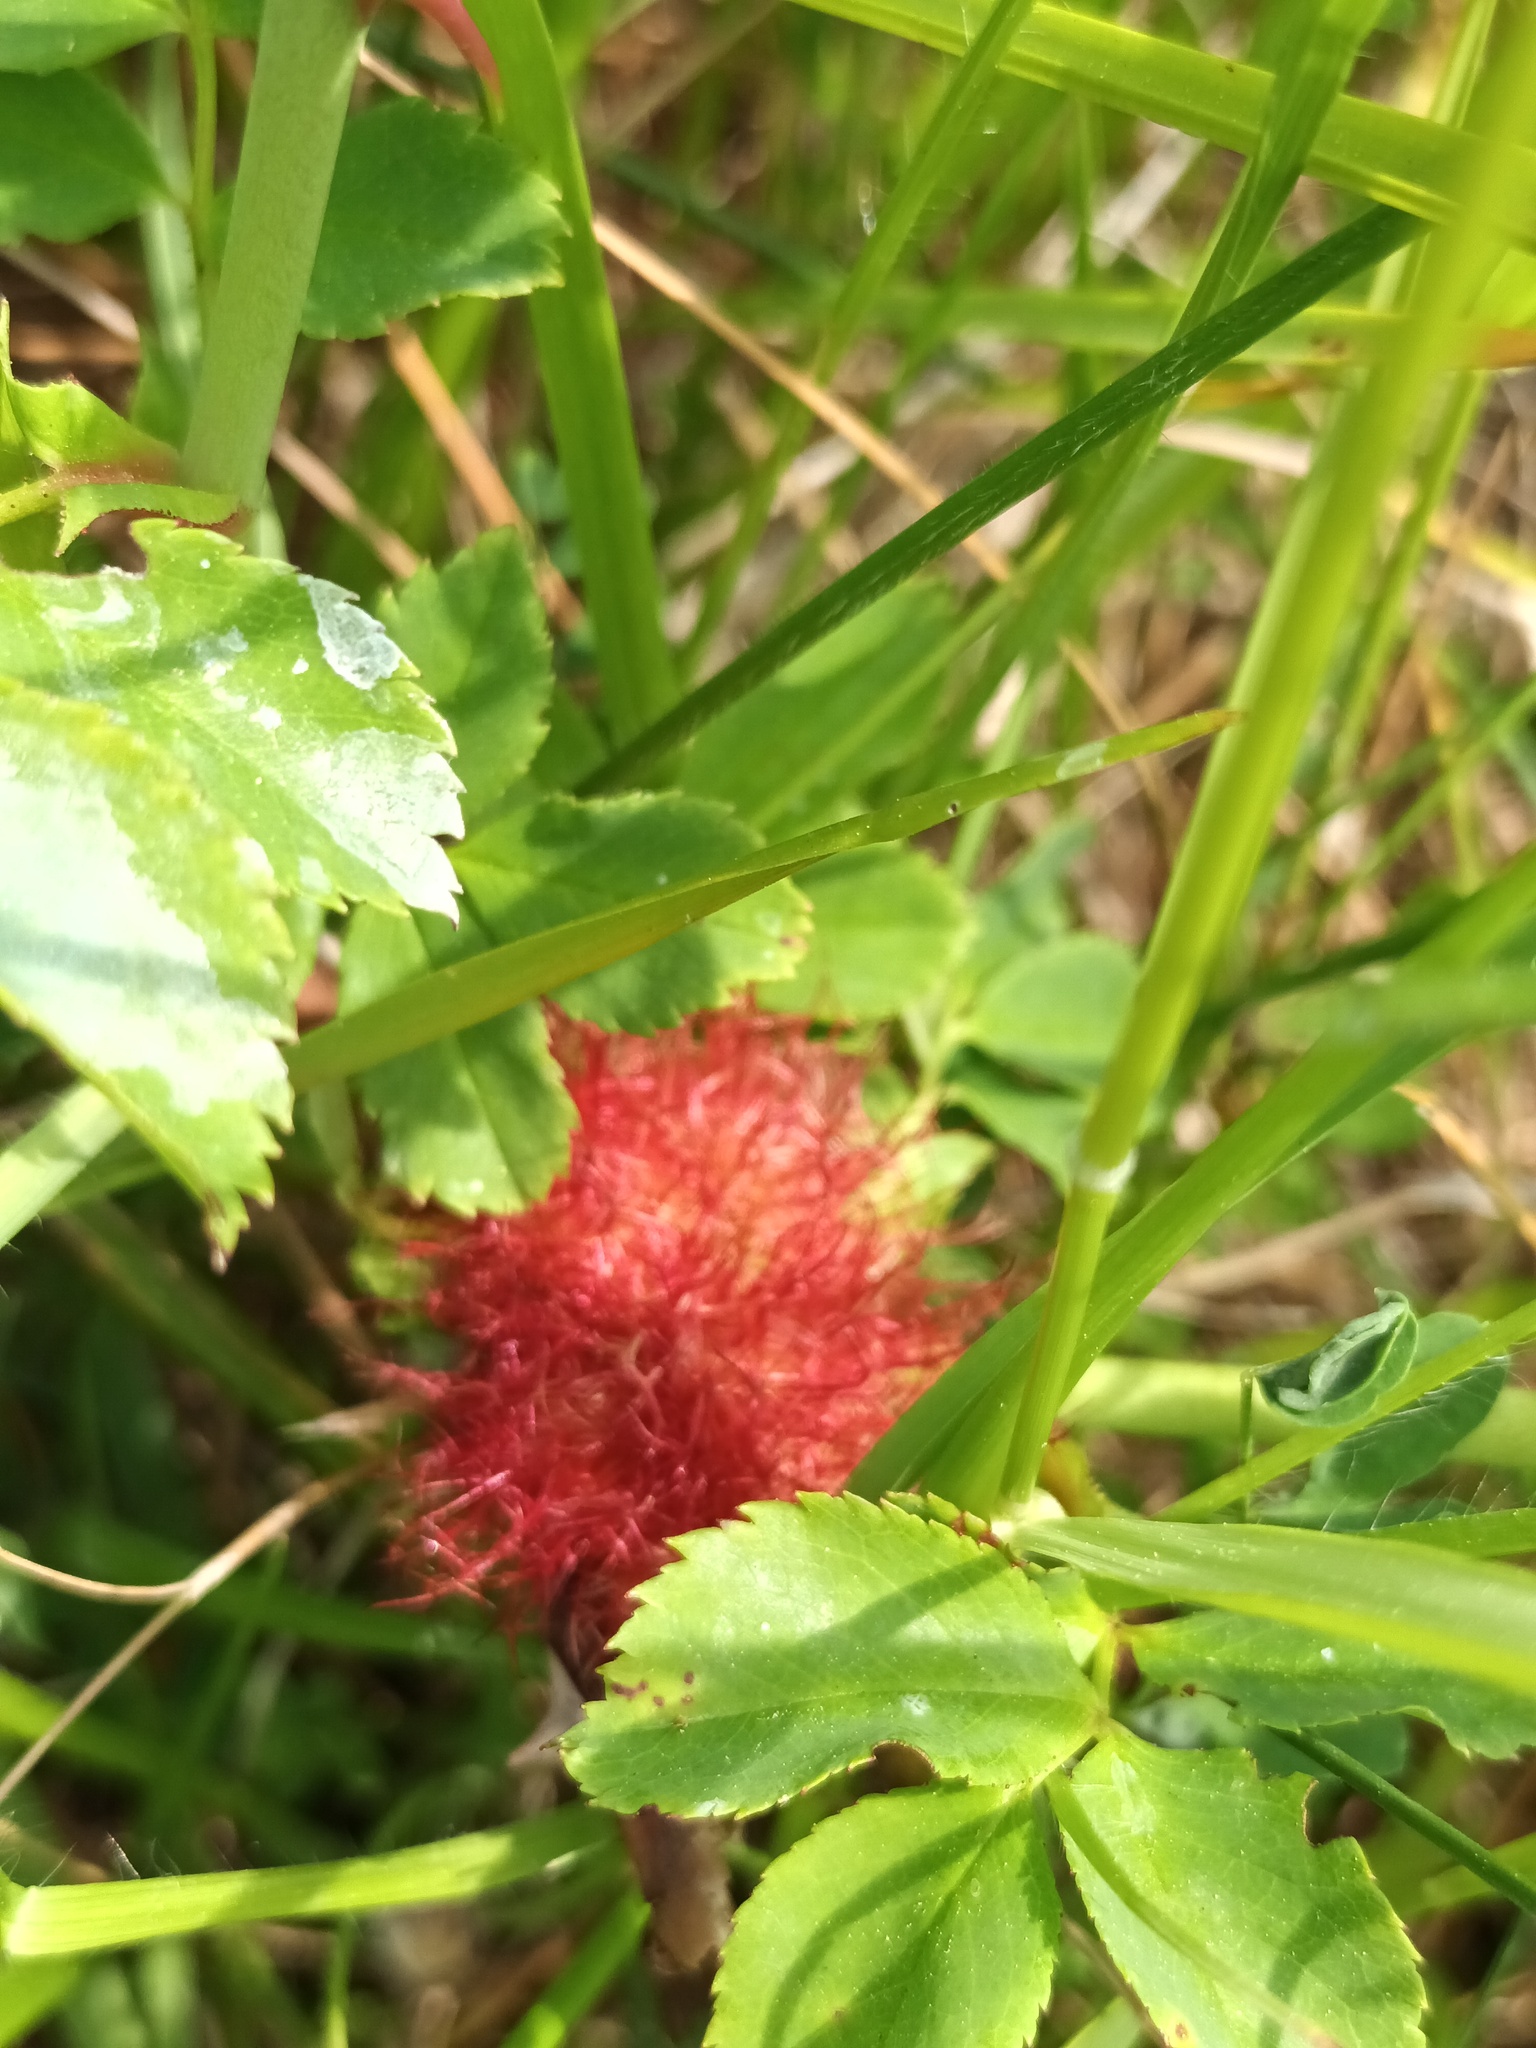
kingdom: Animalia
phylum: Arthropoda
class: Insecta
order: Hymenoptera
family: Cynipidae
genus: Diplolepis
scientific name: Diplolepis rosae
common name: Bedeguar gall
